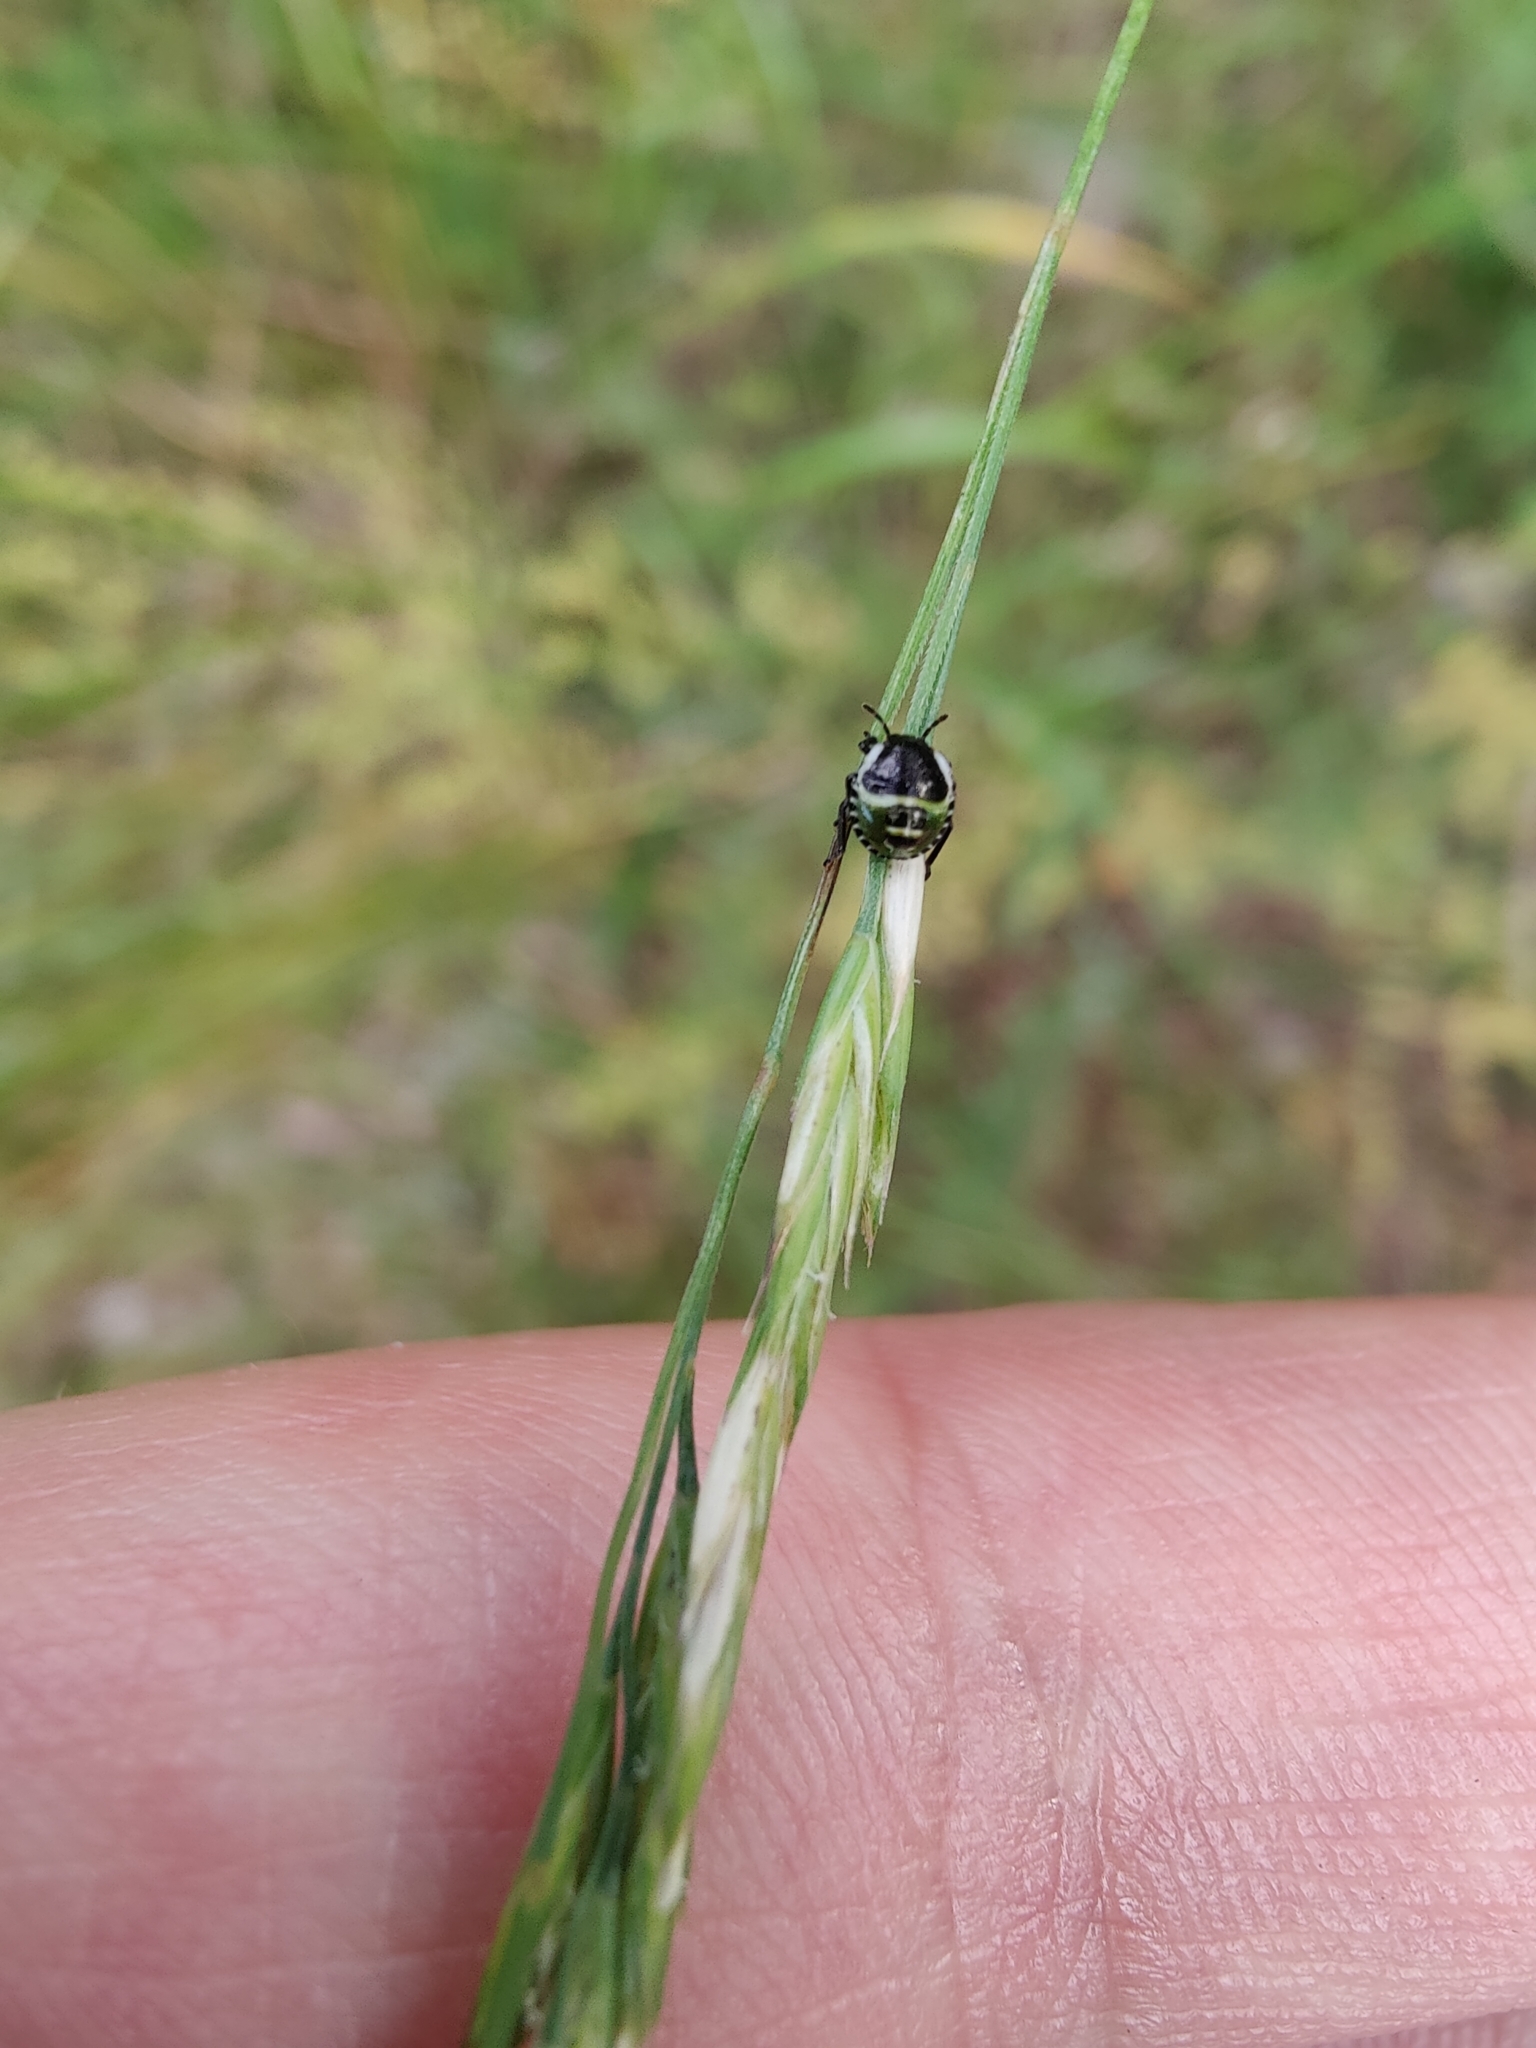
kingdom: Animalia
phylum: Arthropoda
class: Insecta
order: Hemiptera
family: Pentatomidae
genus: Palomena
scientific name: Palomena prasina
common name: Green shieldbug
